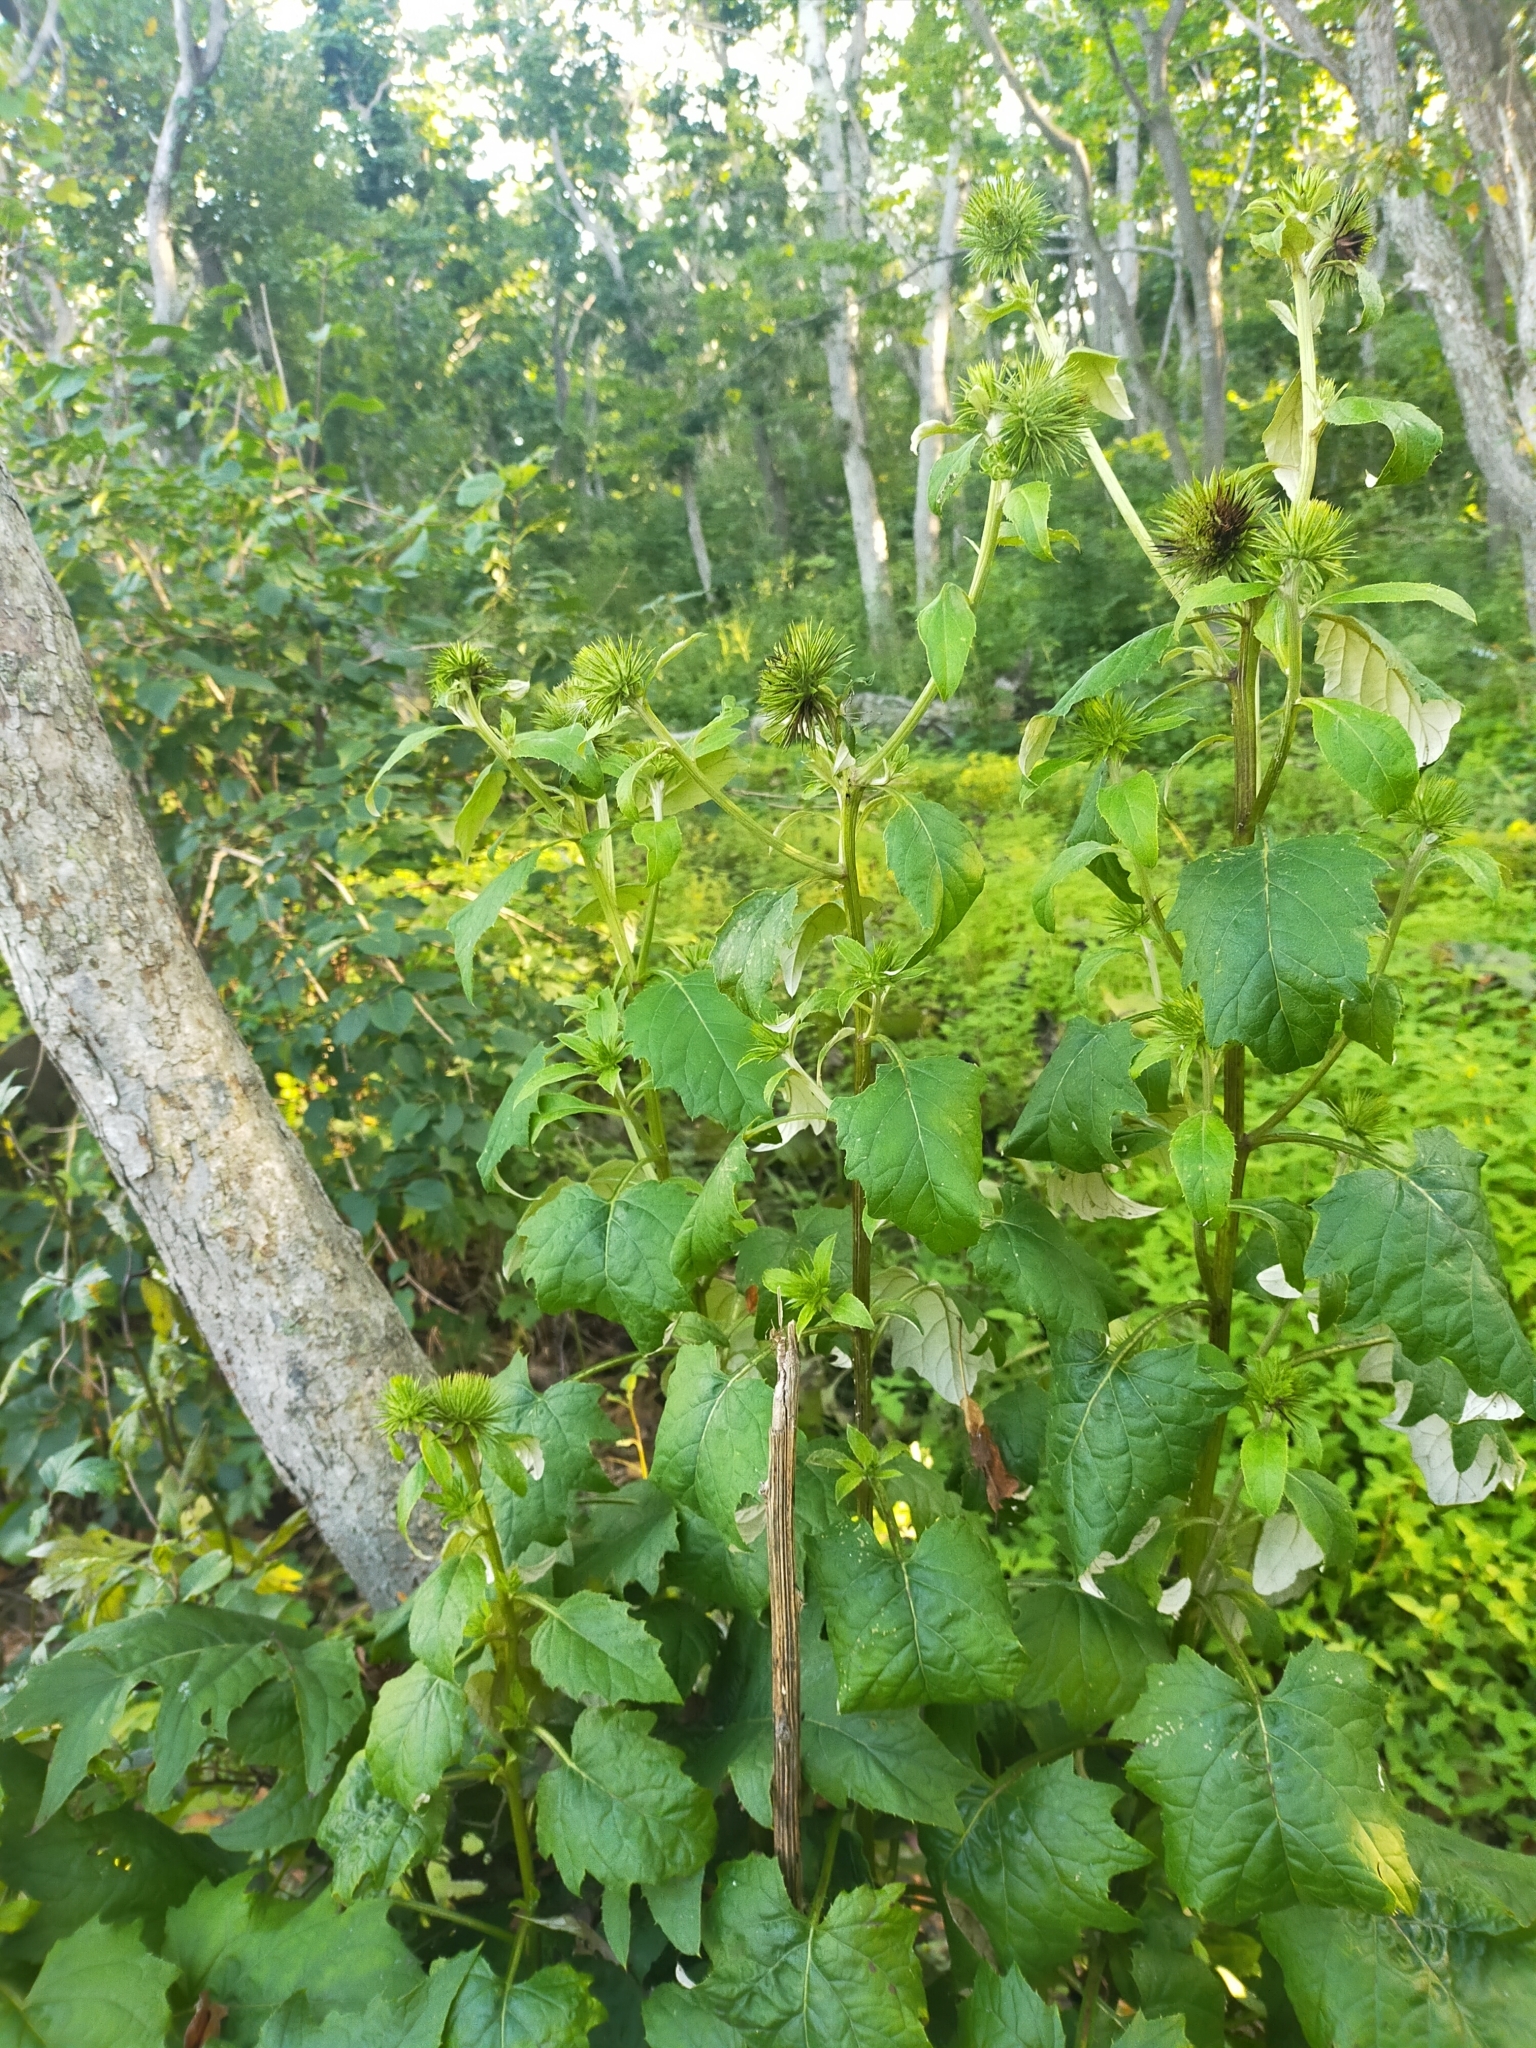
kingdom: Plantae
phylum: Tracheophyta
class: Magnoliopsida
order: Asterales
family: Asteraceae
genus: Synurus
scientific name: Synurus deltoides
